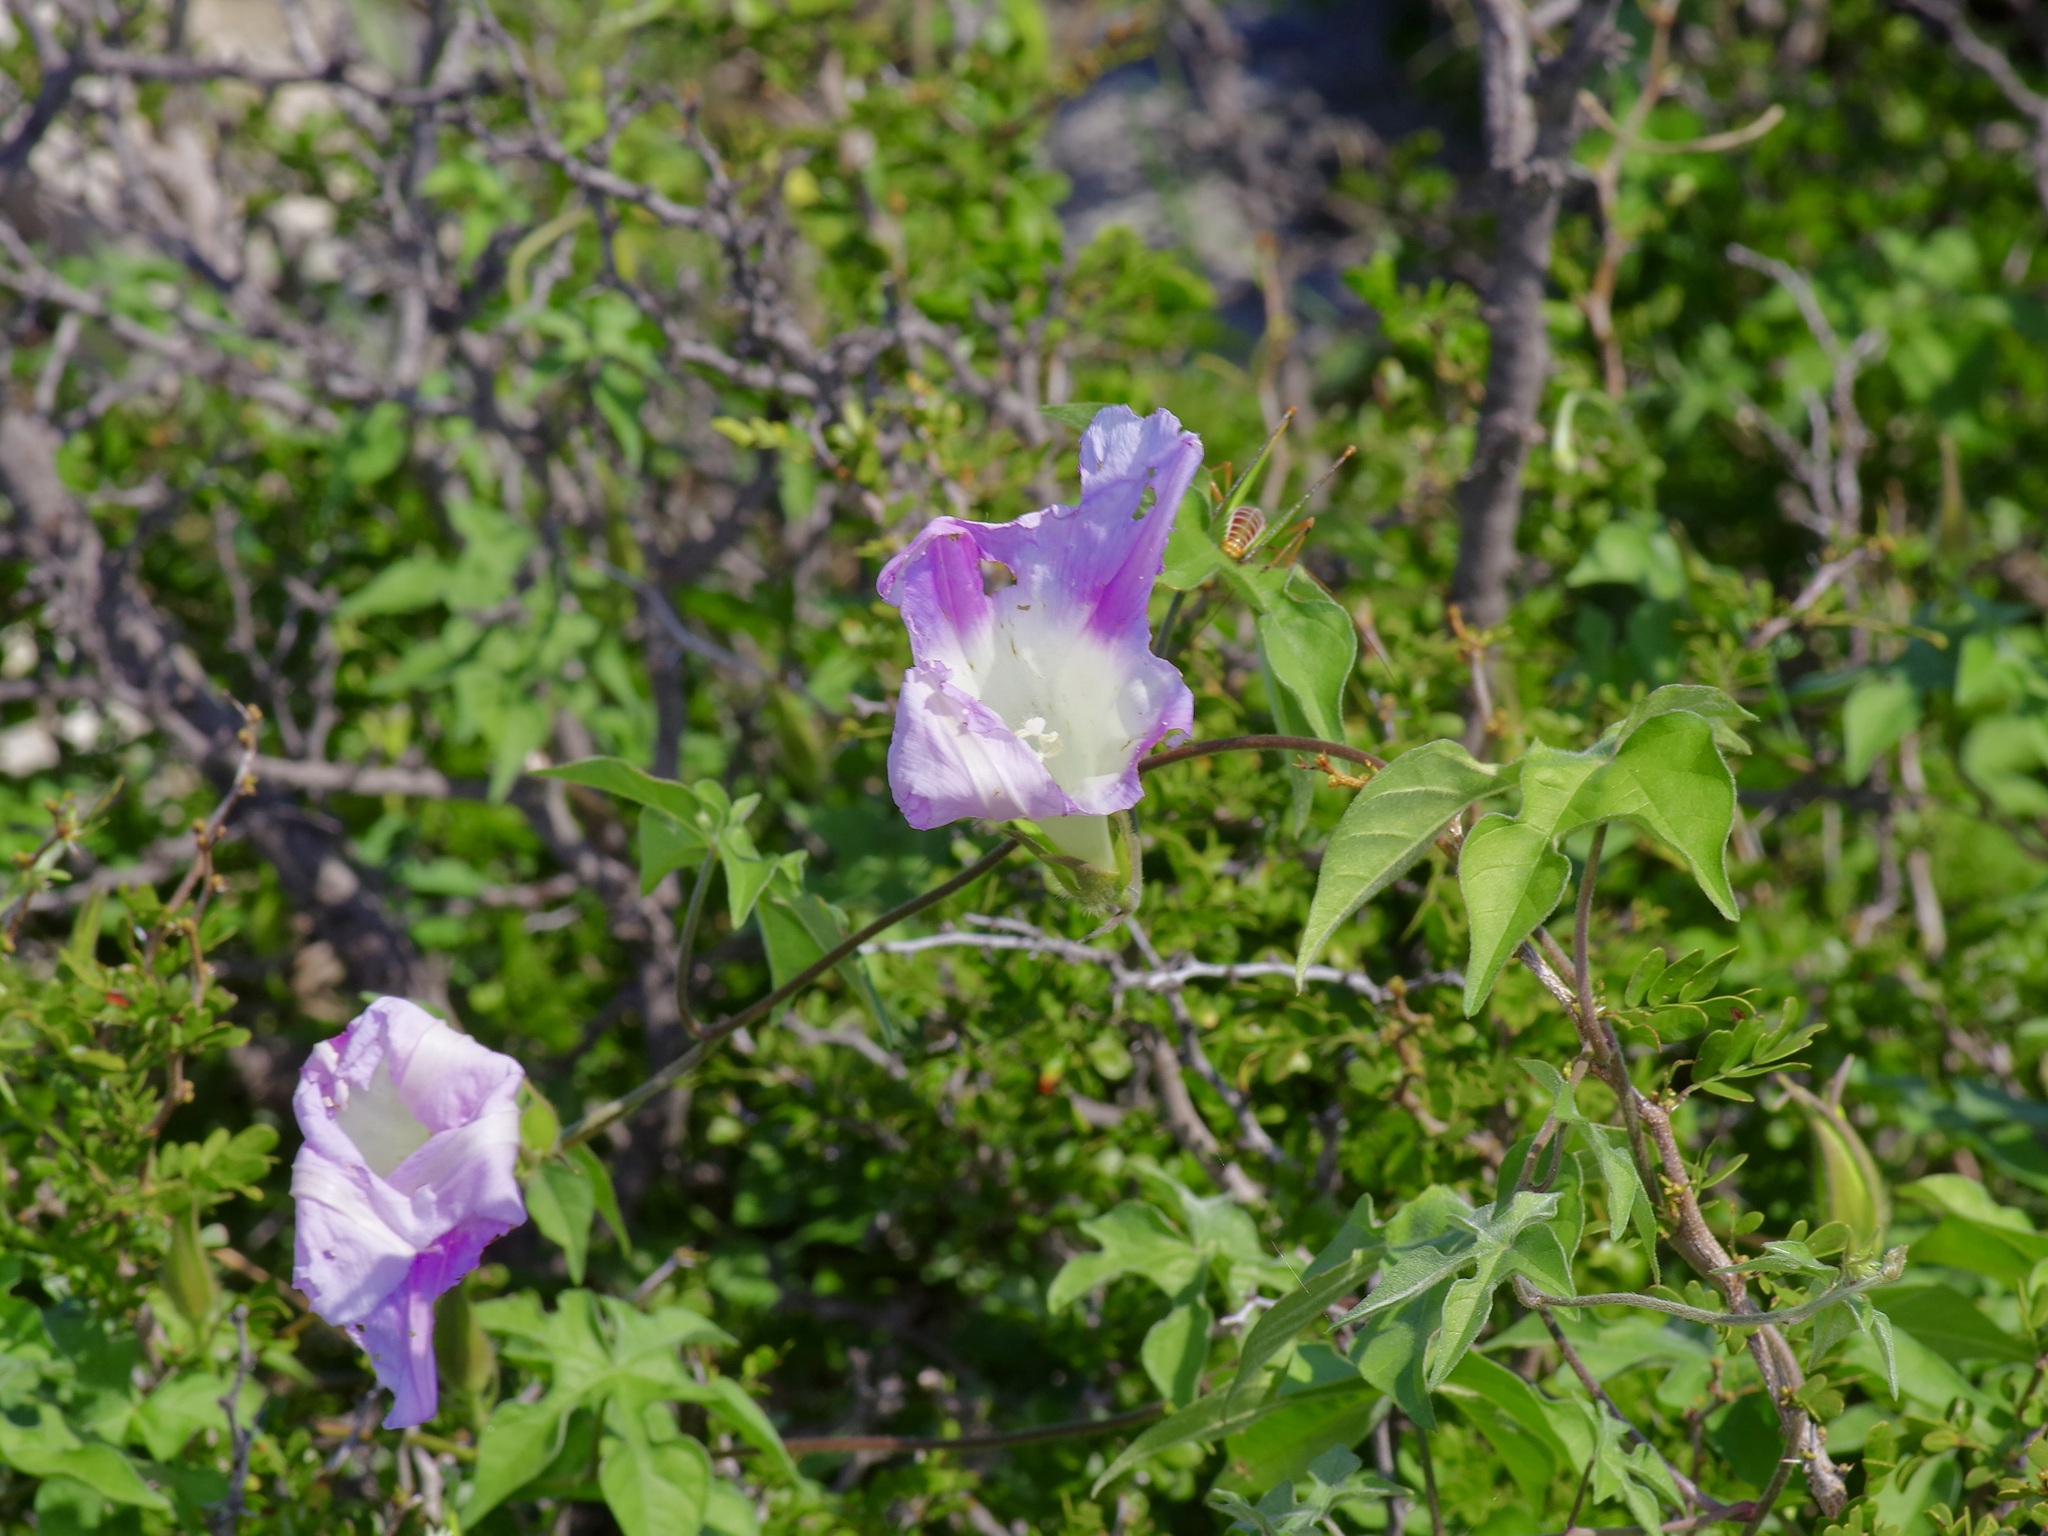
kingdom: Plantae
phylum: Tracheophyta
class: Magnoliopsida
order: Solanales
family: Convolvulaceae
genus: Ipomoea
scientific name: Ipomoea lindheimeri
